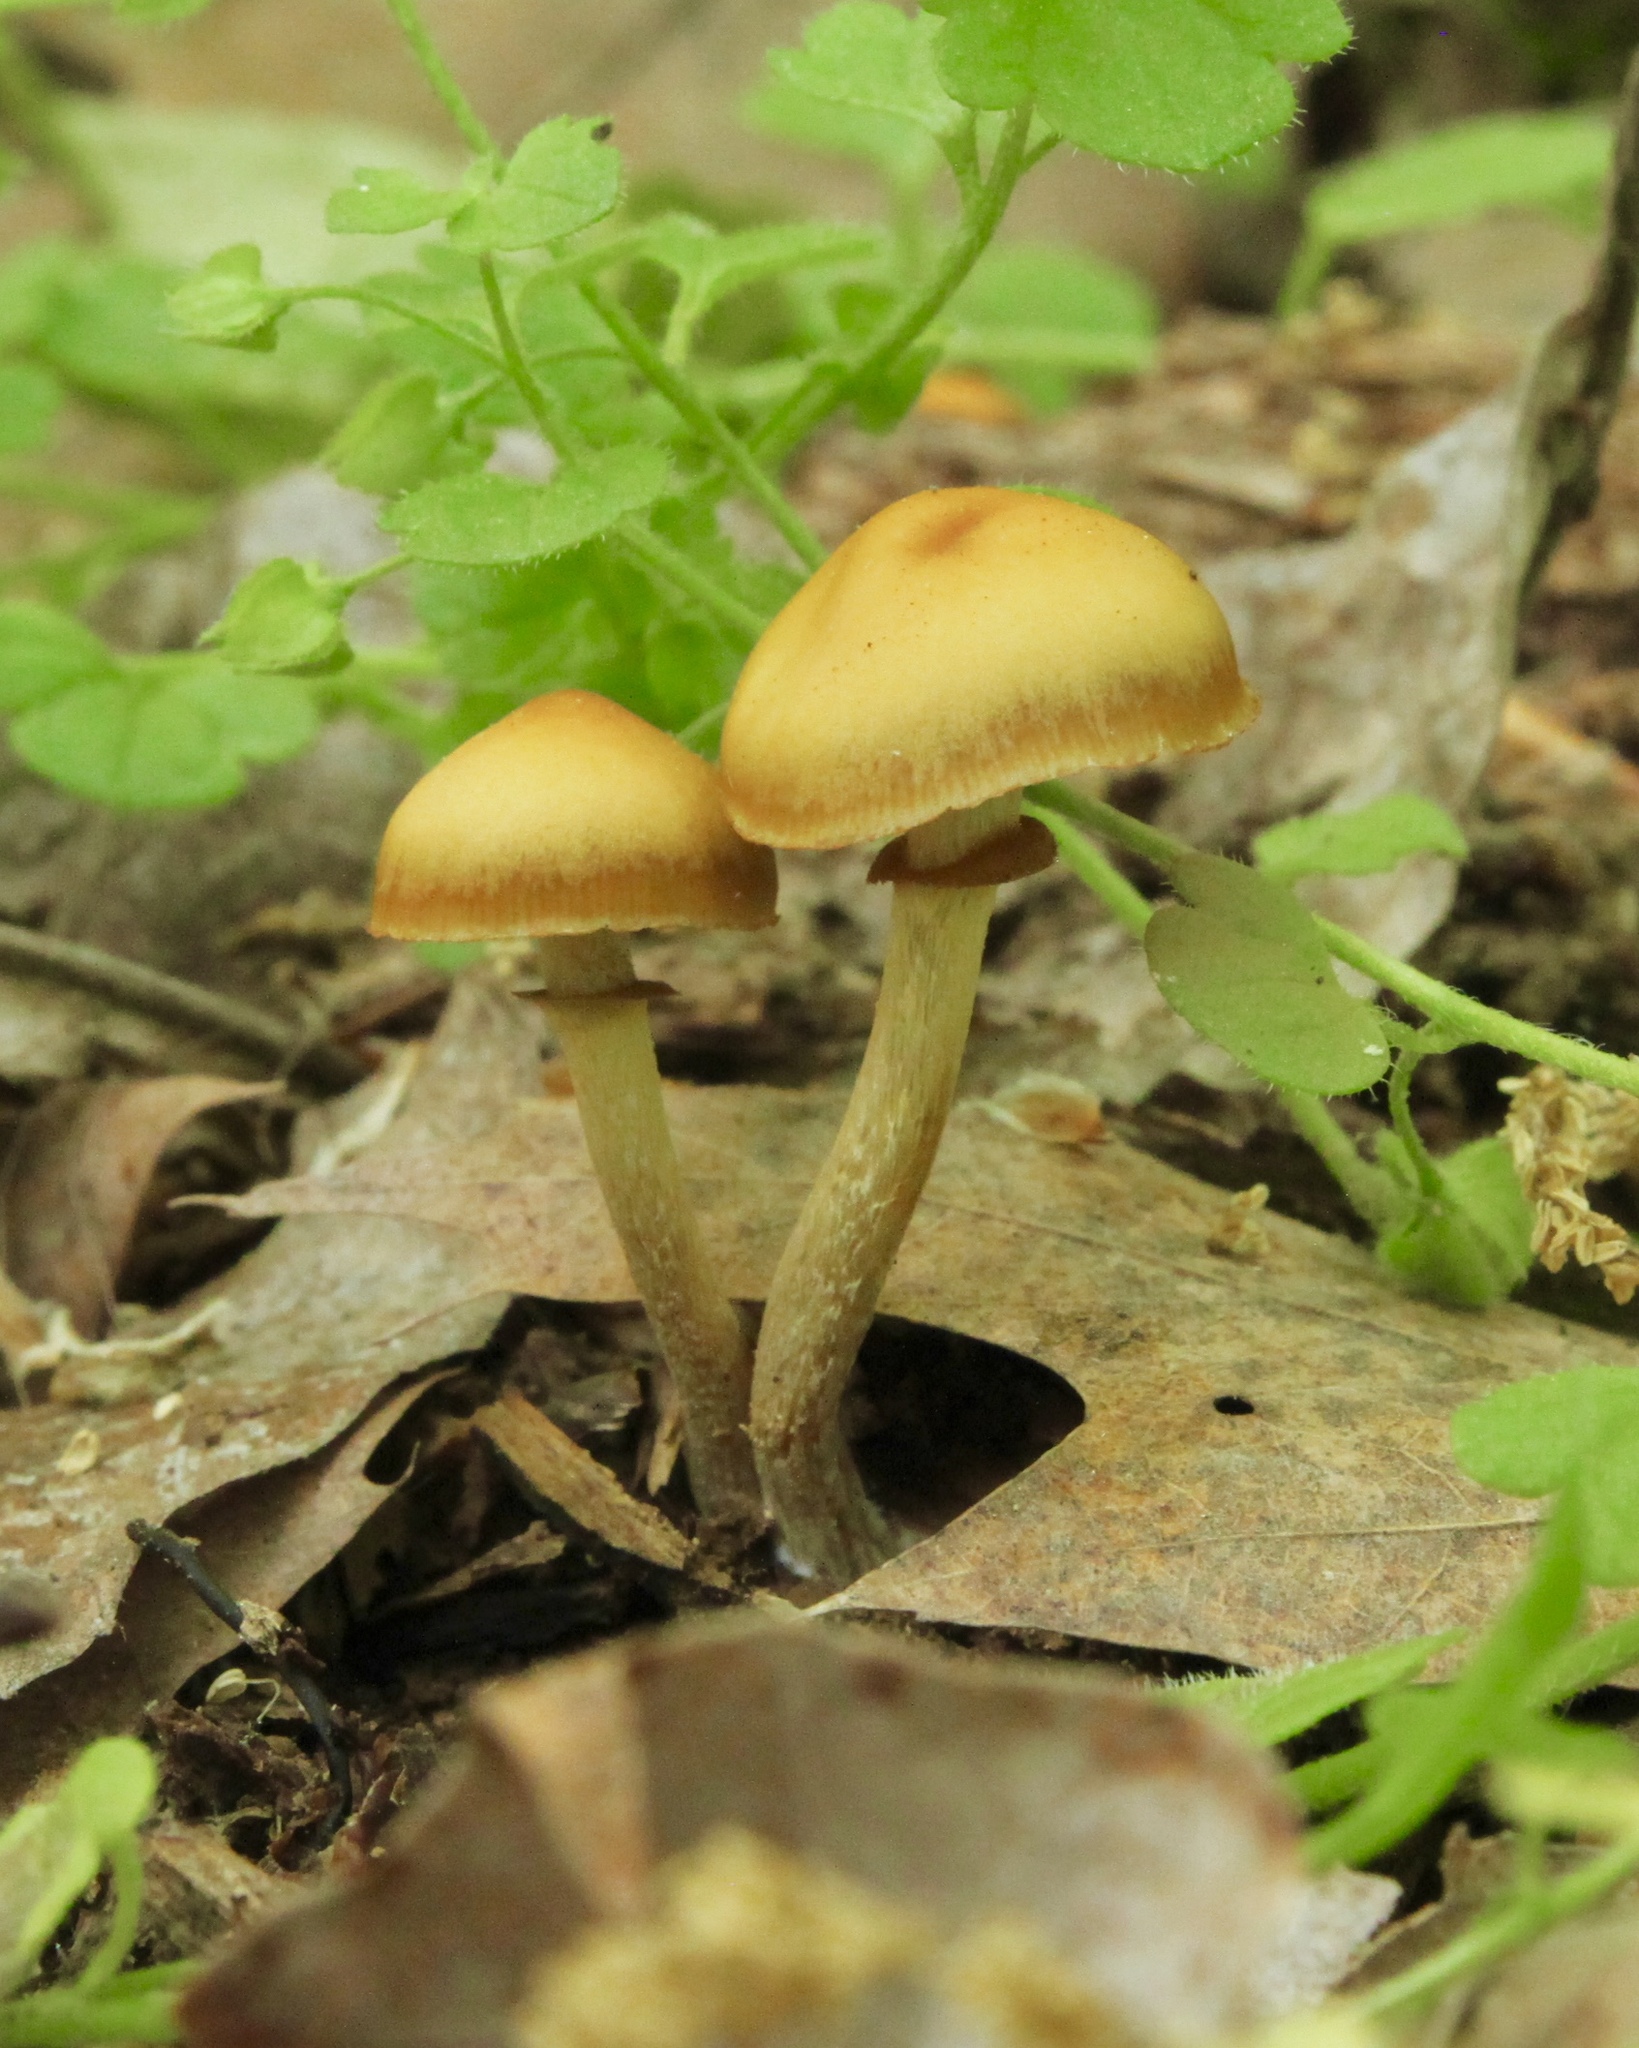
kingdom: Fungi
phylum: Basidiomycota
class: Agaricomycetes
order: Agaricales
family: Hymenogastraceae
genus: Galerina
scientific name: Galerina marginata
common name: Funeral bell
